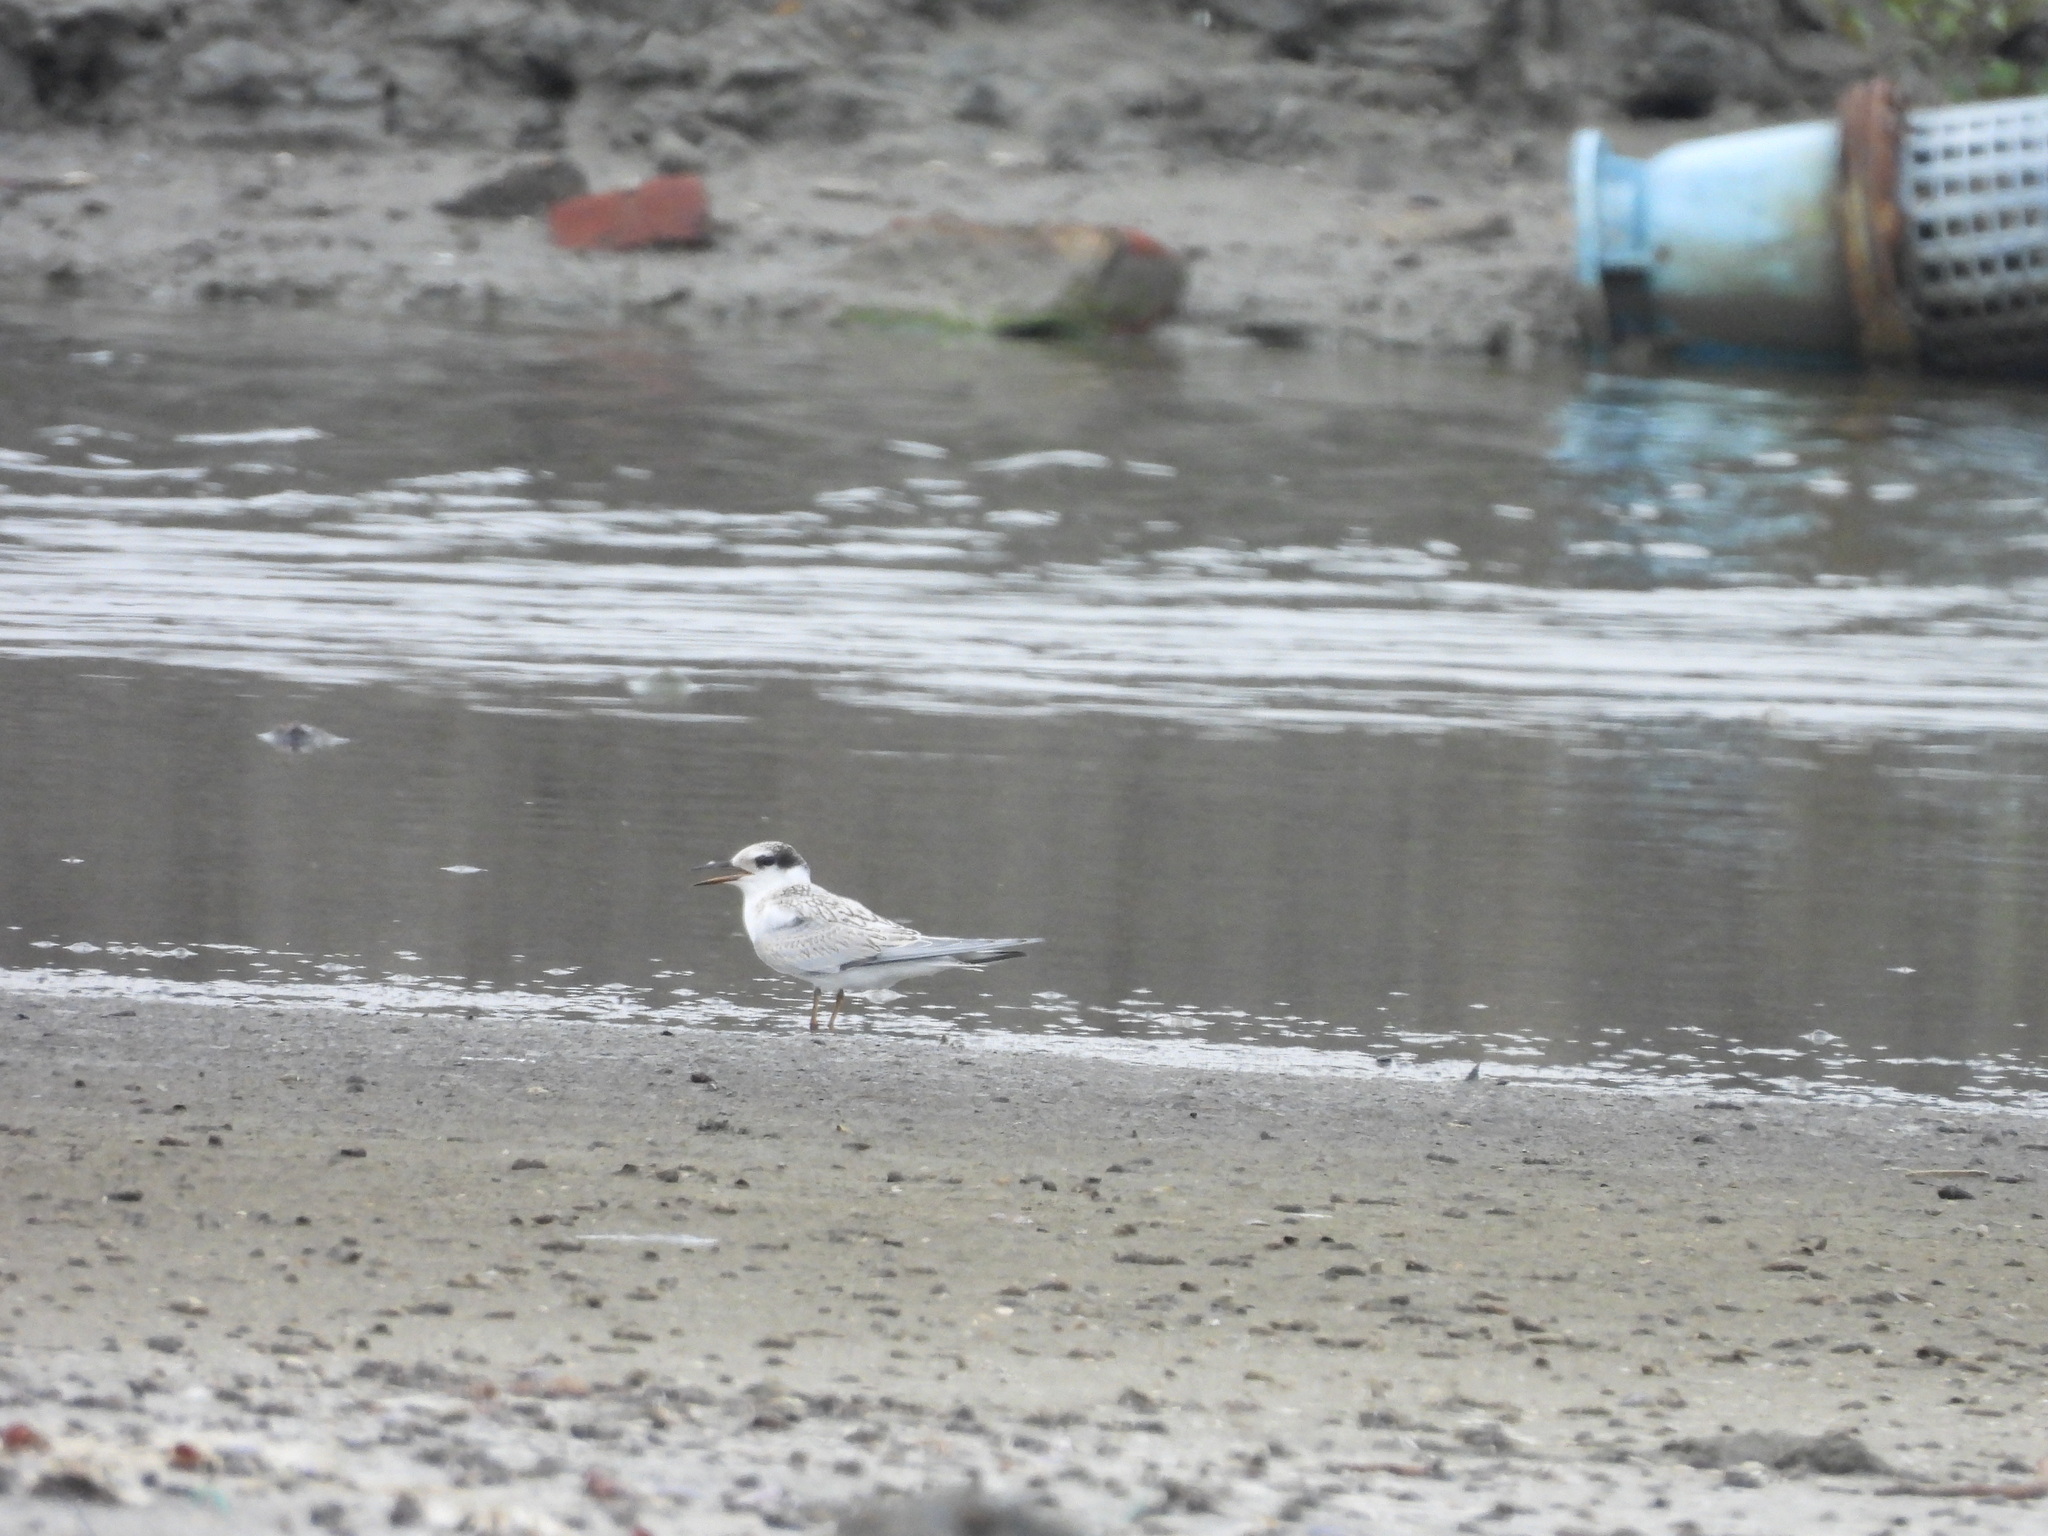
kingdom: Animalia
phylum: Chordata
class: Aves
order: Charadriiformes
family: Laridae
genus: Sternula
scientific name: Sternula albifrons
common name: Little tern
